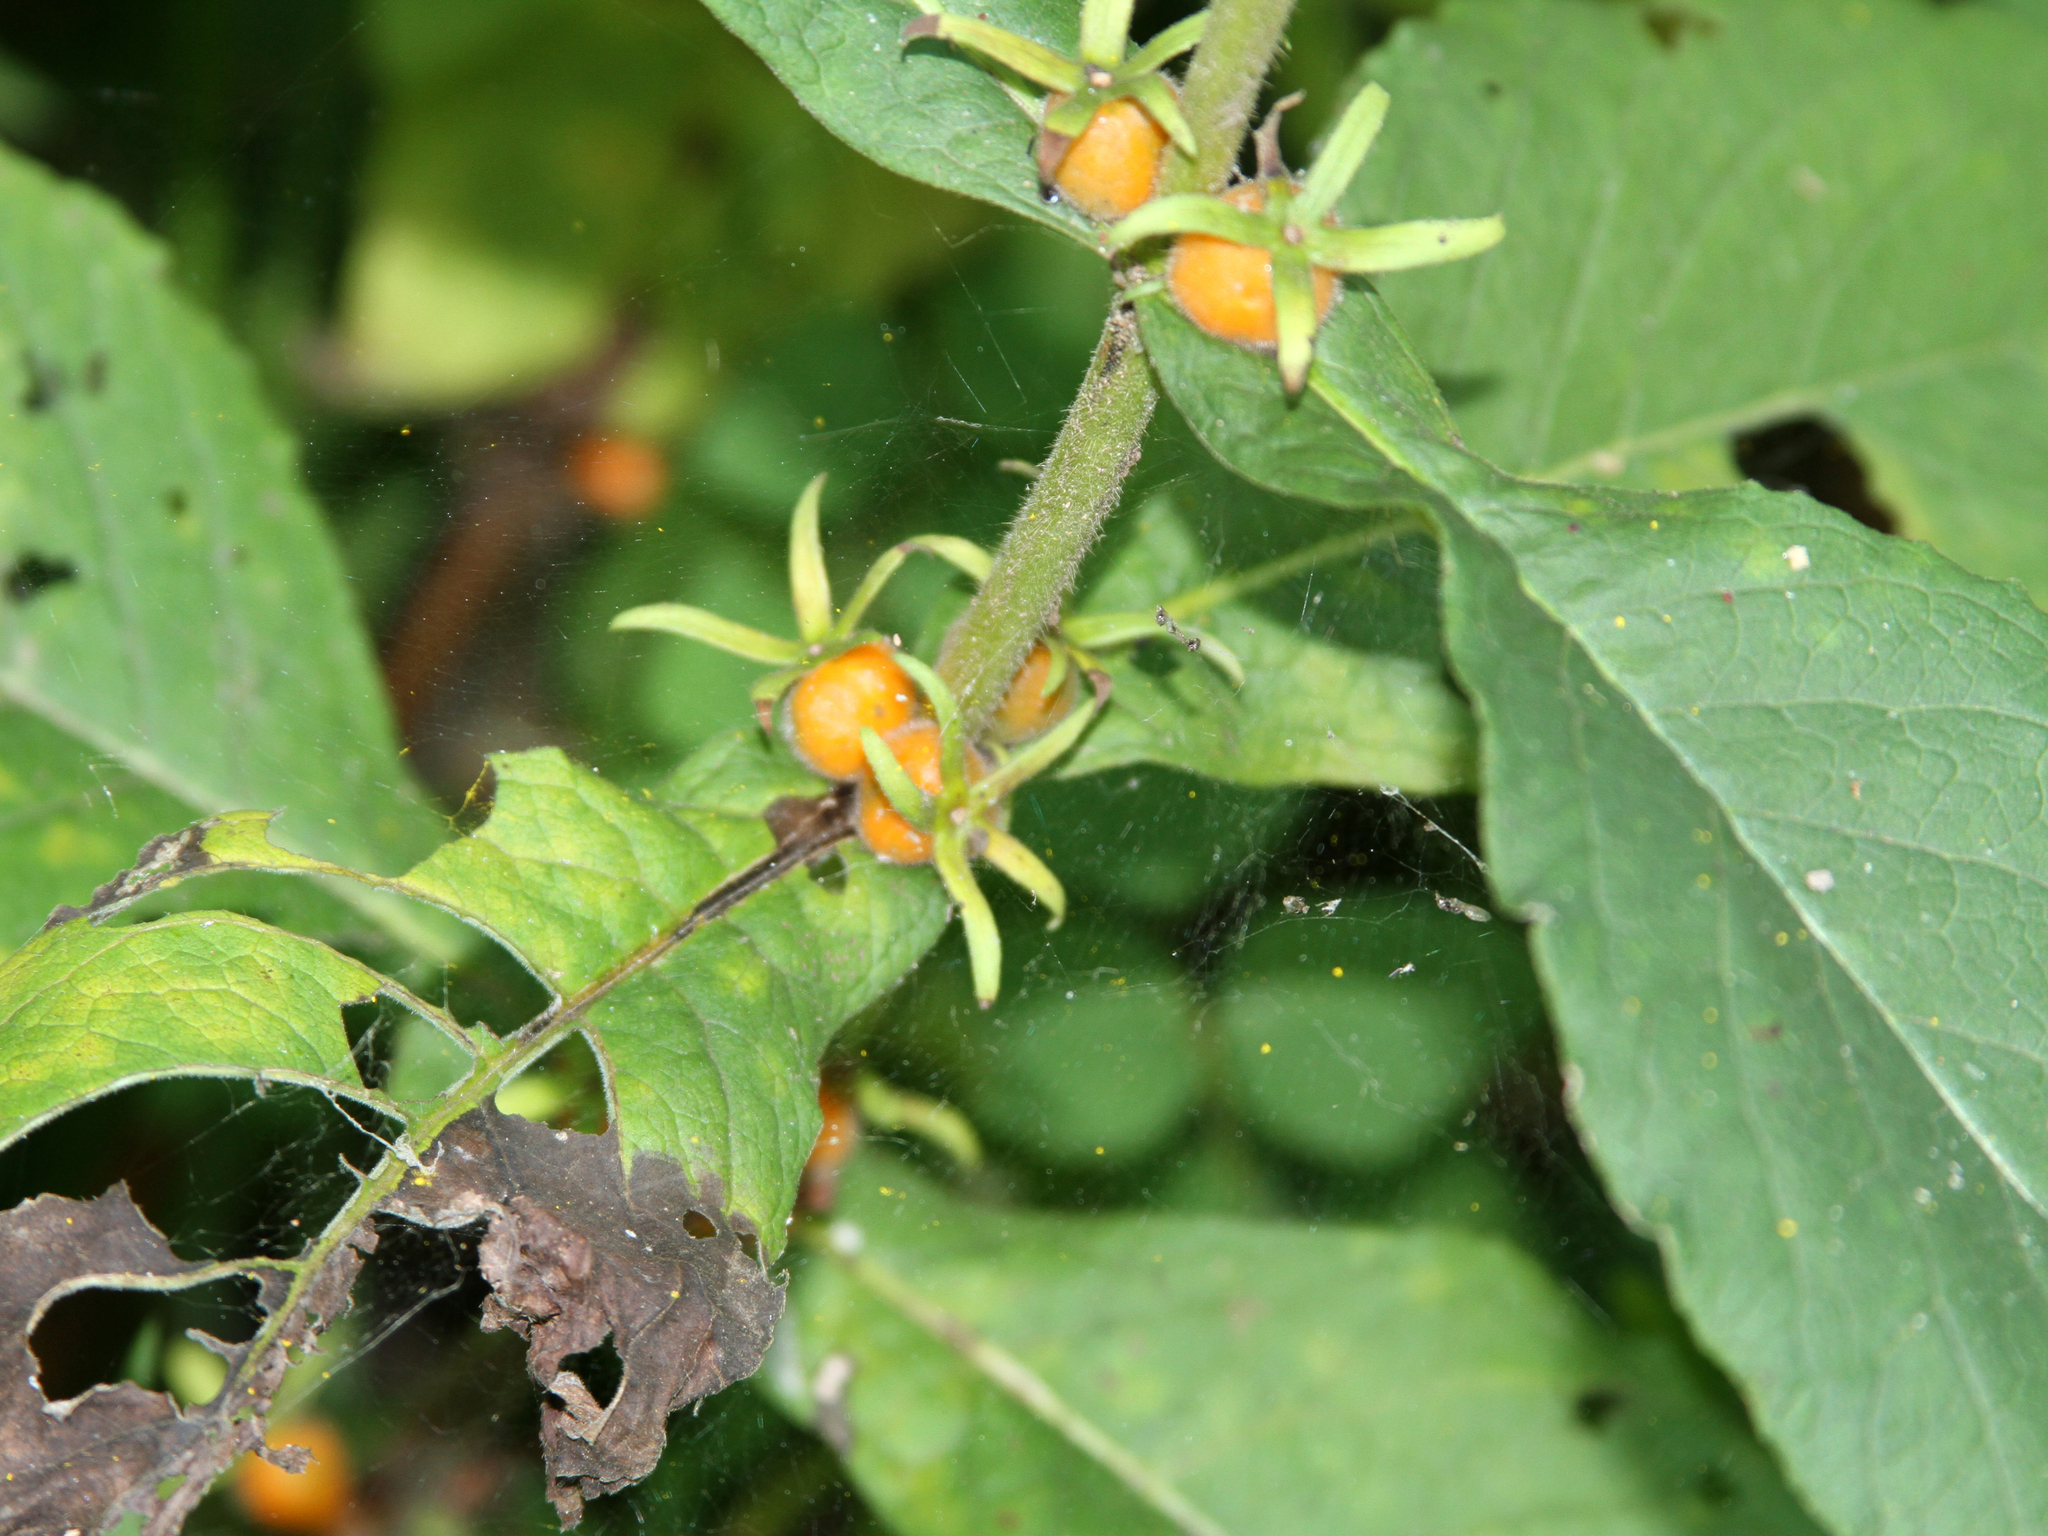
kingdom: Plantae
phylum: Tracheophyta
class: Magnoliopsida
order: Dipsacales
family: Caprifoliaceae
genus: Triosteum
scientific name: Triosteum aurantiacum
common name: Coffee tinker's-weed
